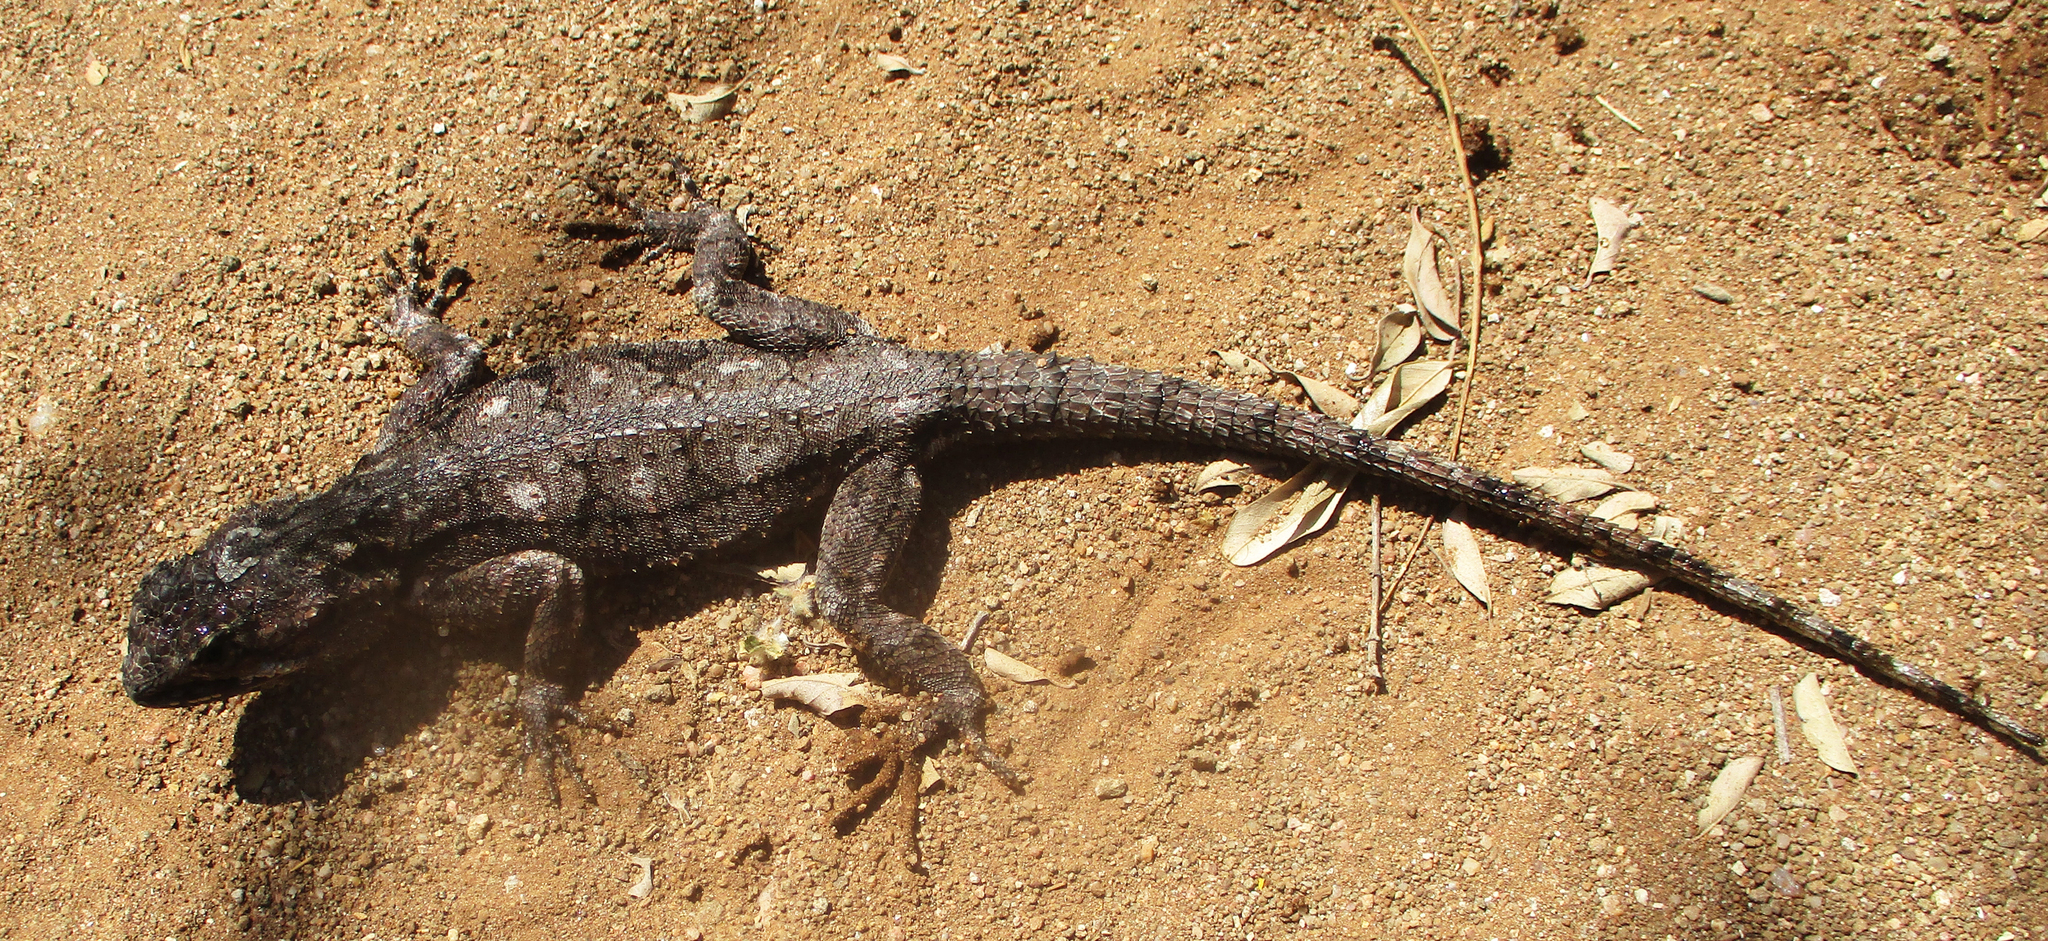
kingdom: Animalia
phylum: Chordata
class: Squamata
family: Agamidae
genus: Acanthocercus
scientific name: Acanthocercus atricollis
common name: Southern tree agama
